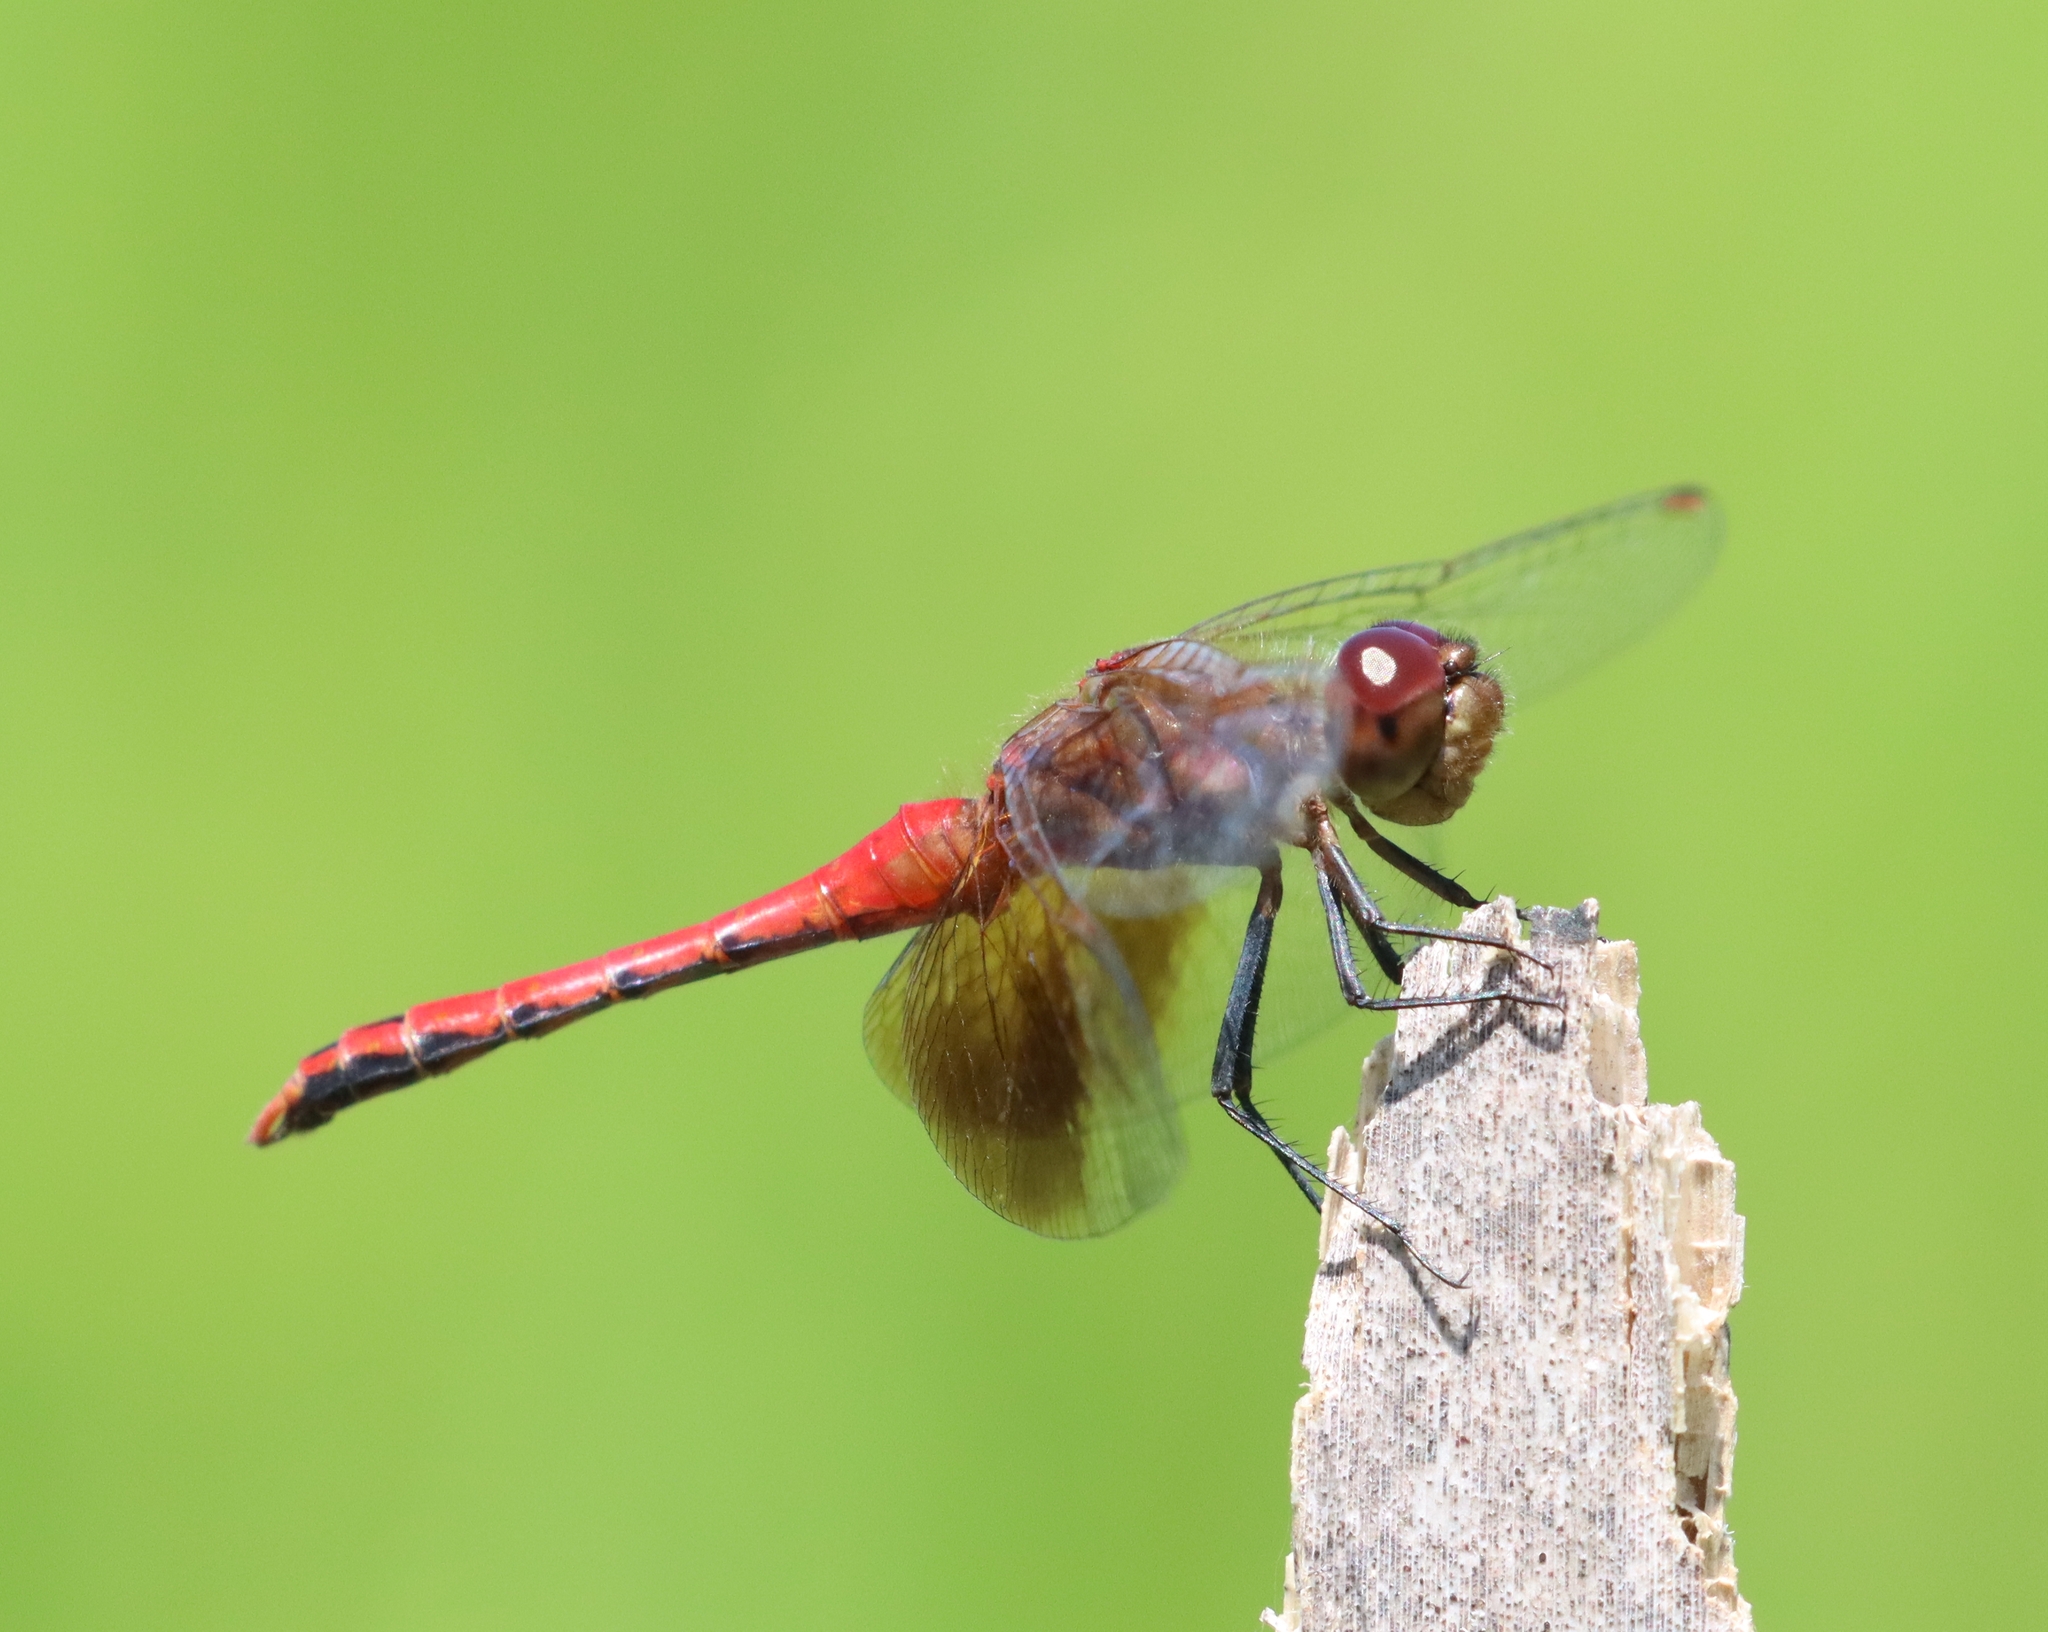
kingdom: Animalia
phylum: Arthropoda
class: Insecta
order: Odonata
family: Libellulidae
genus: Sympetrum
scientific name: Sympetrum semicinctum
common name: Band-winged meadowhawk
